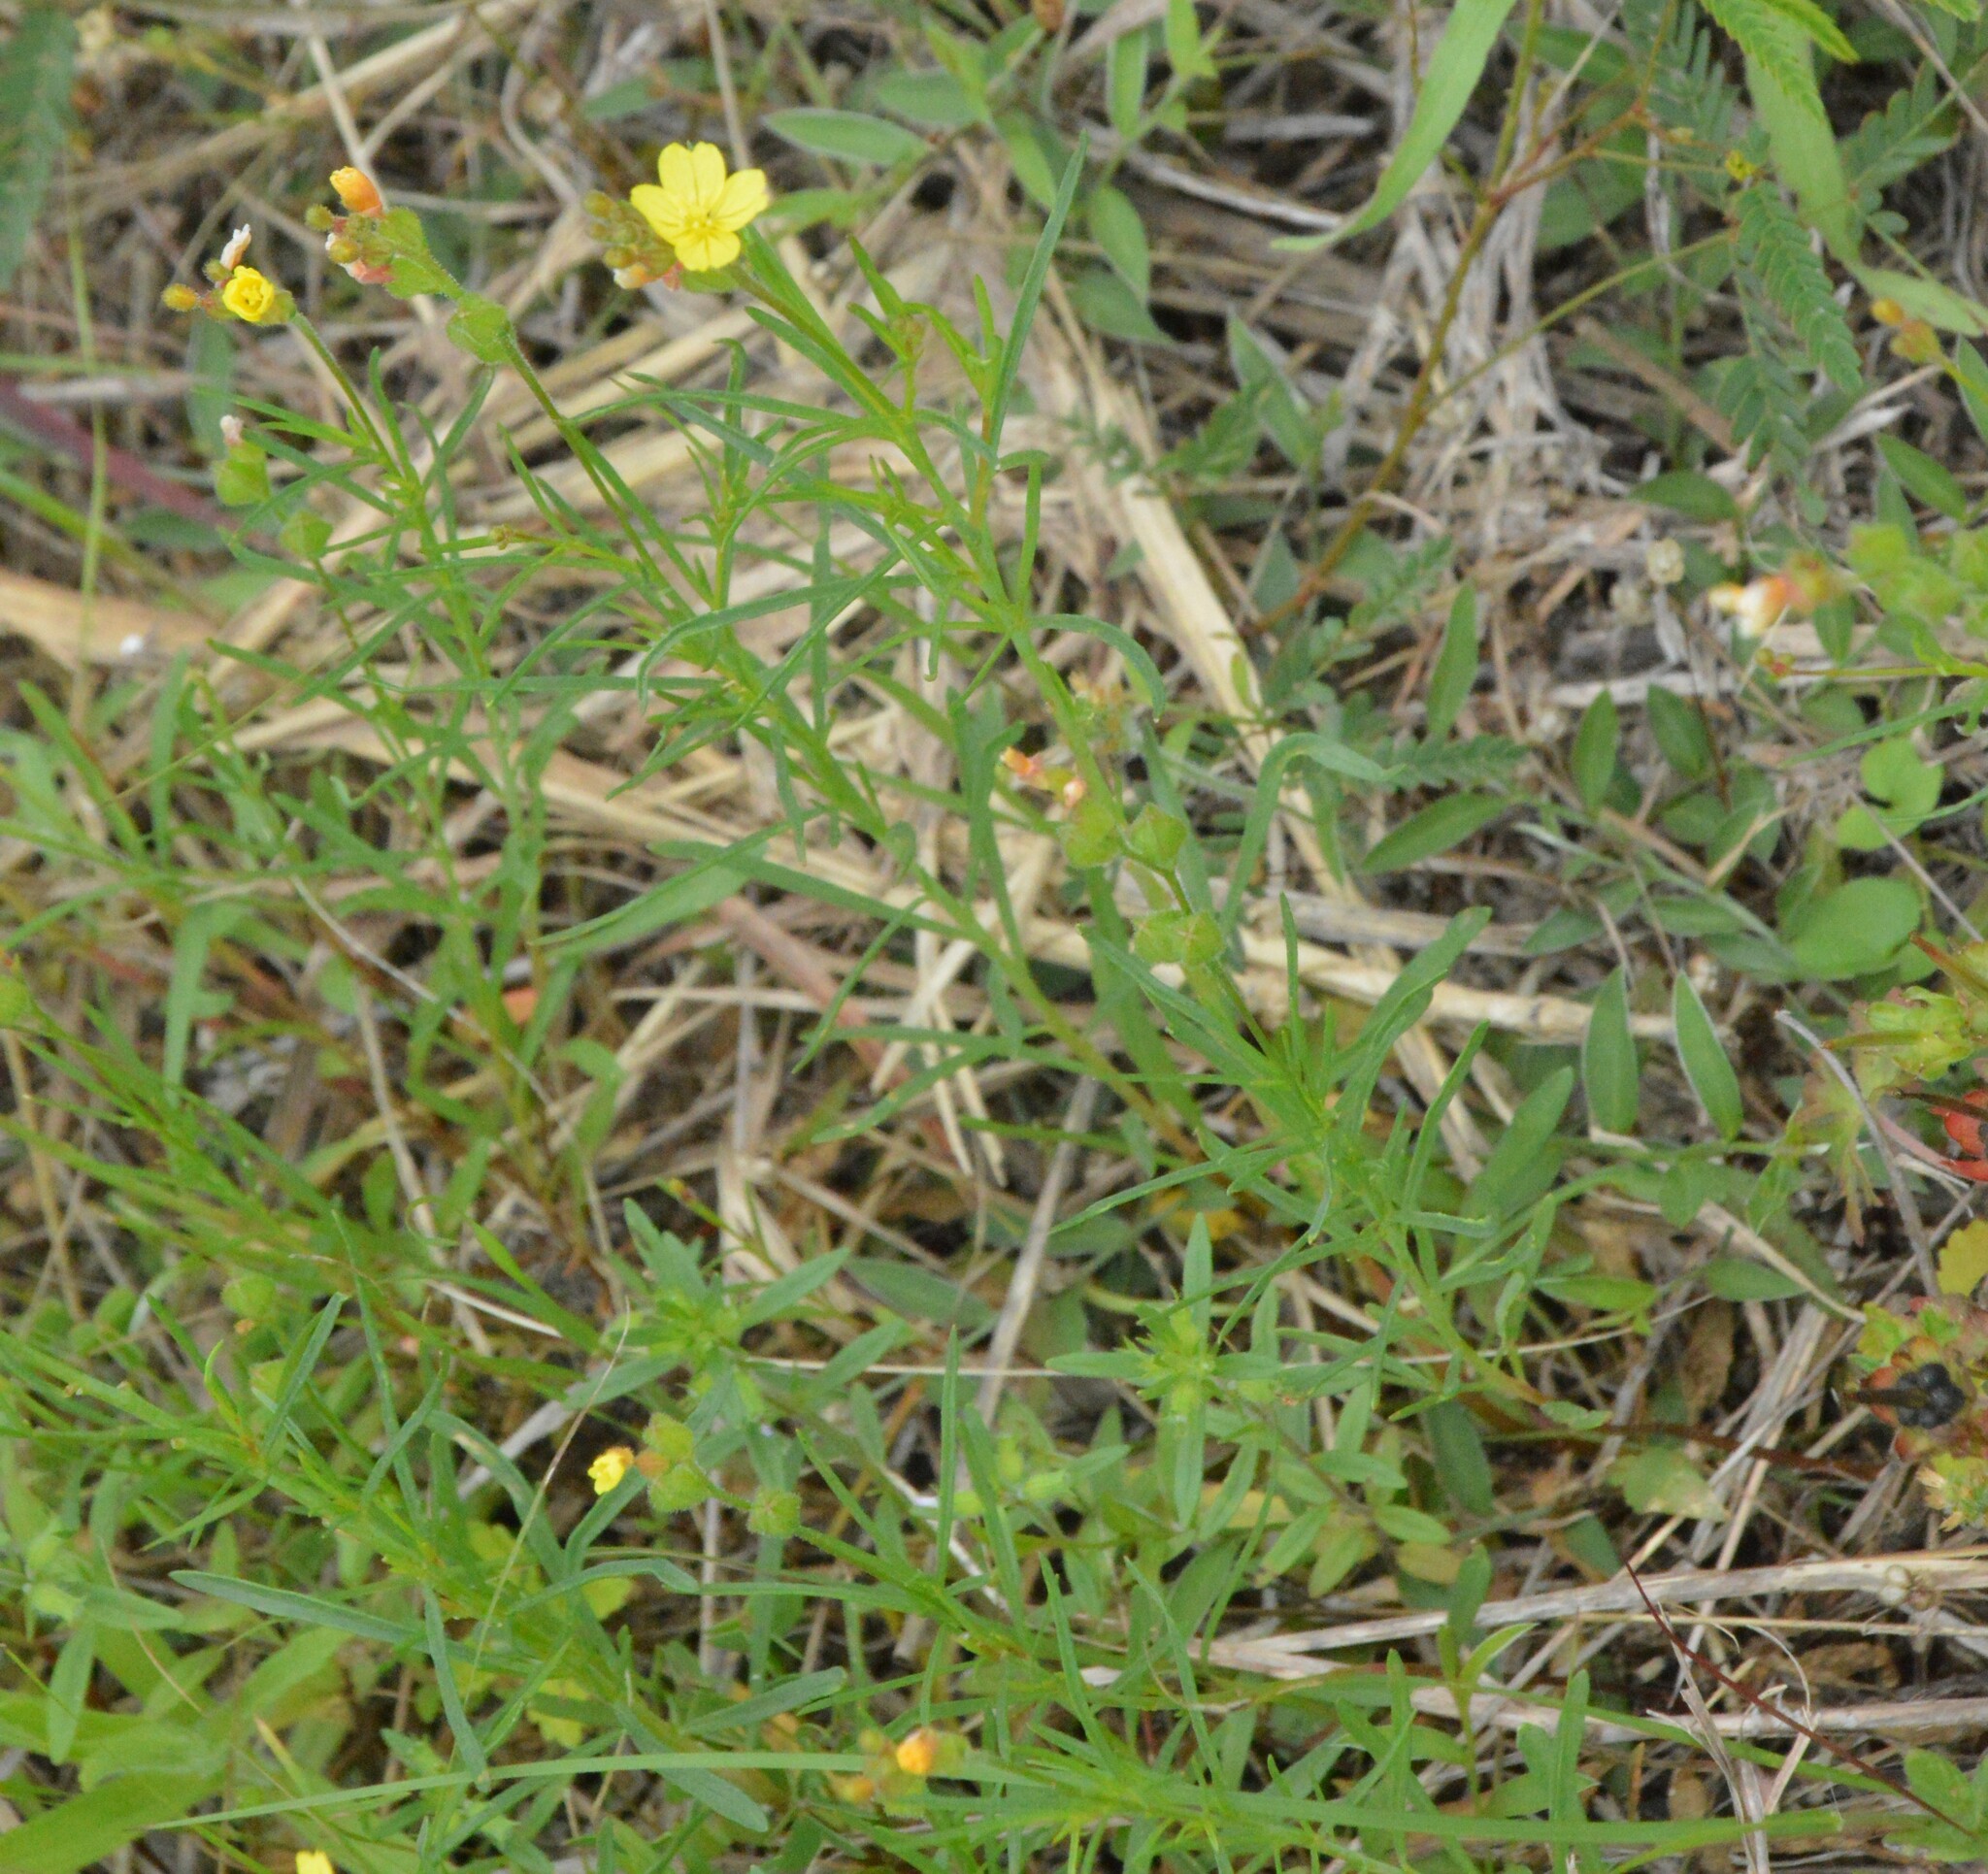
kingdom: Plantae
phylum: Tracheophyta
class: Magnoliopsida
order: Myrtales
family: Onagraceae
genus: Oenothera
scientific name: Oenothera linifolia
